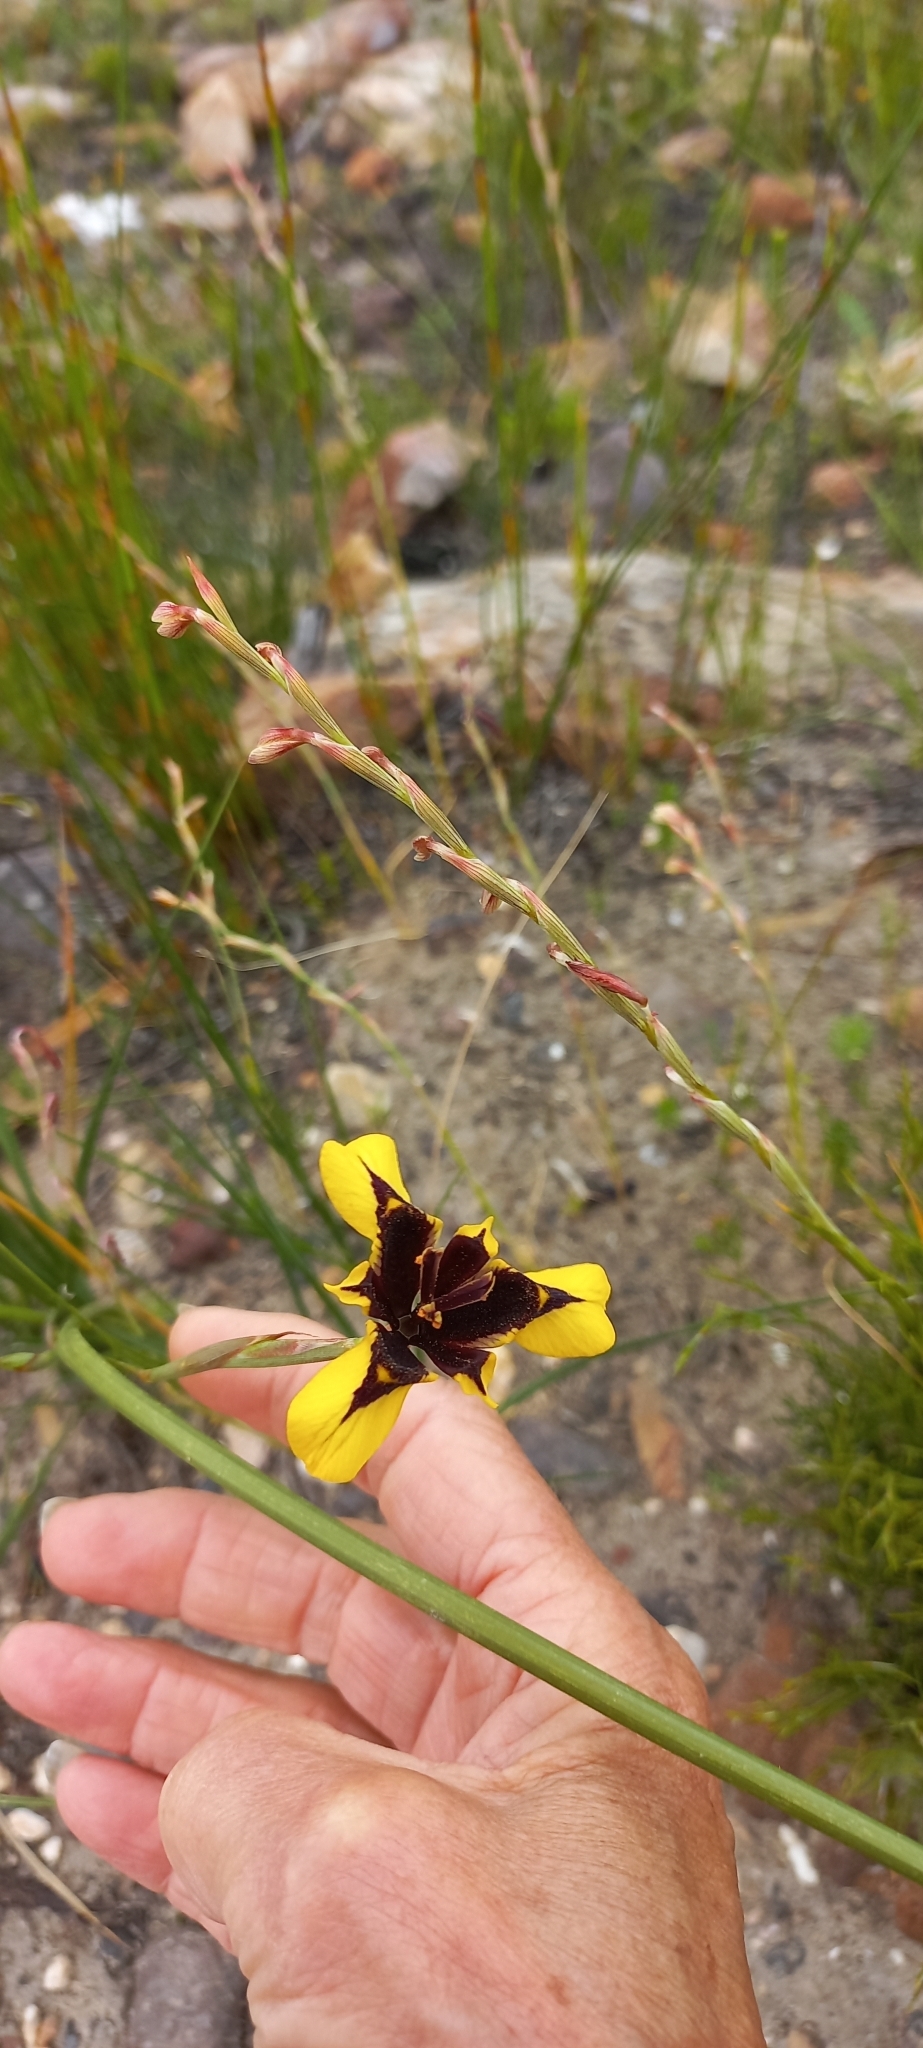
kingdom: Plantae
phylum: Tracheophyta
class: Liliopsida
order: Asparagales
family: Iridaceae
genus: Moraea
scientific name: Moraea lurida
